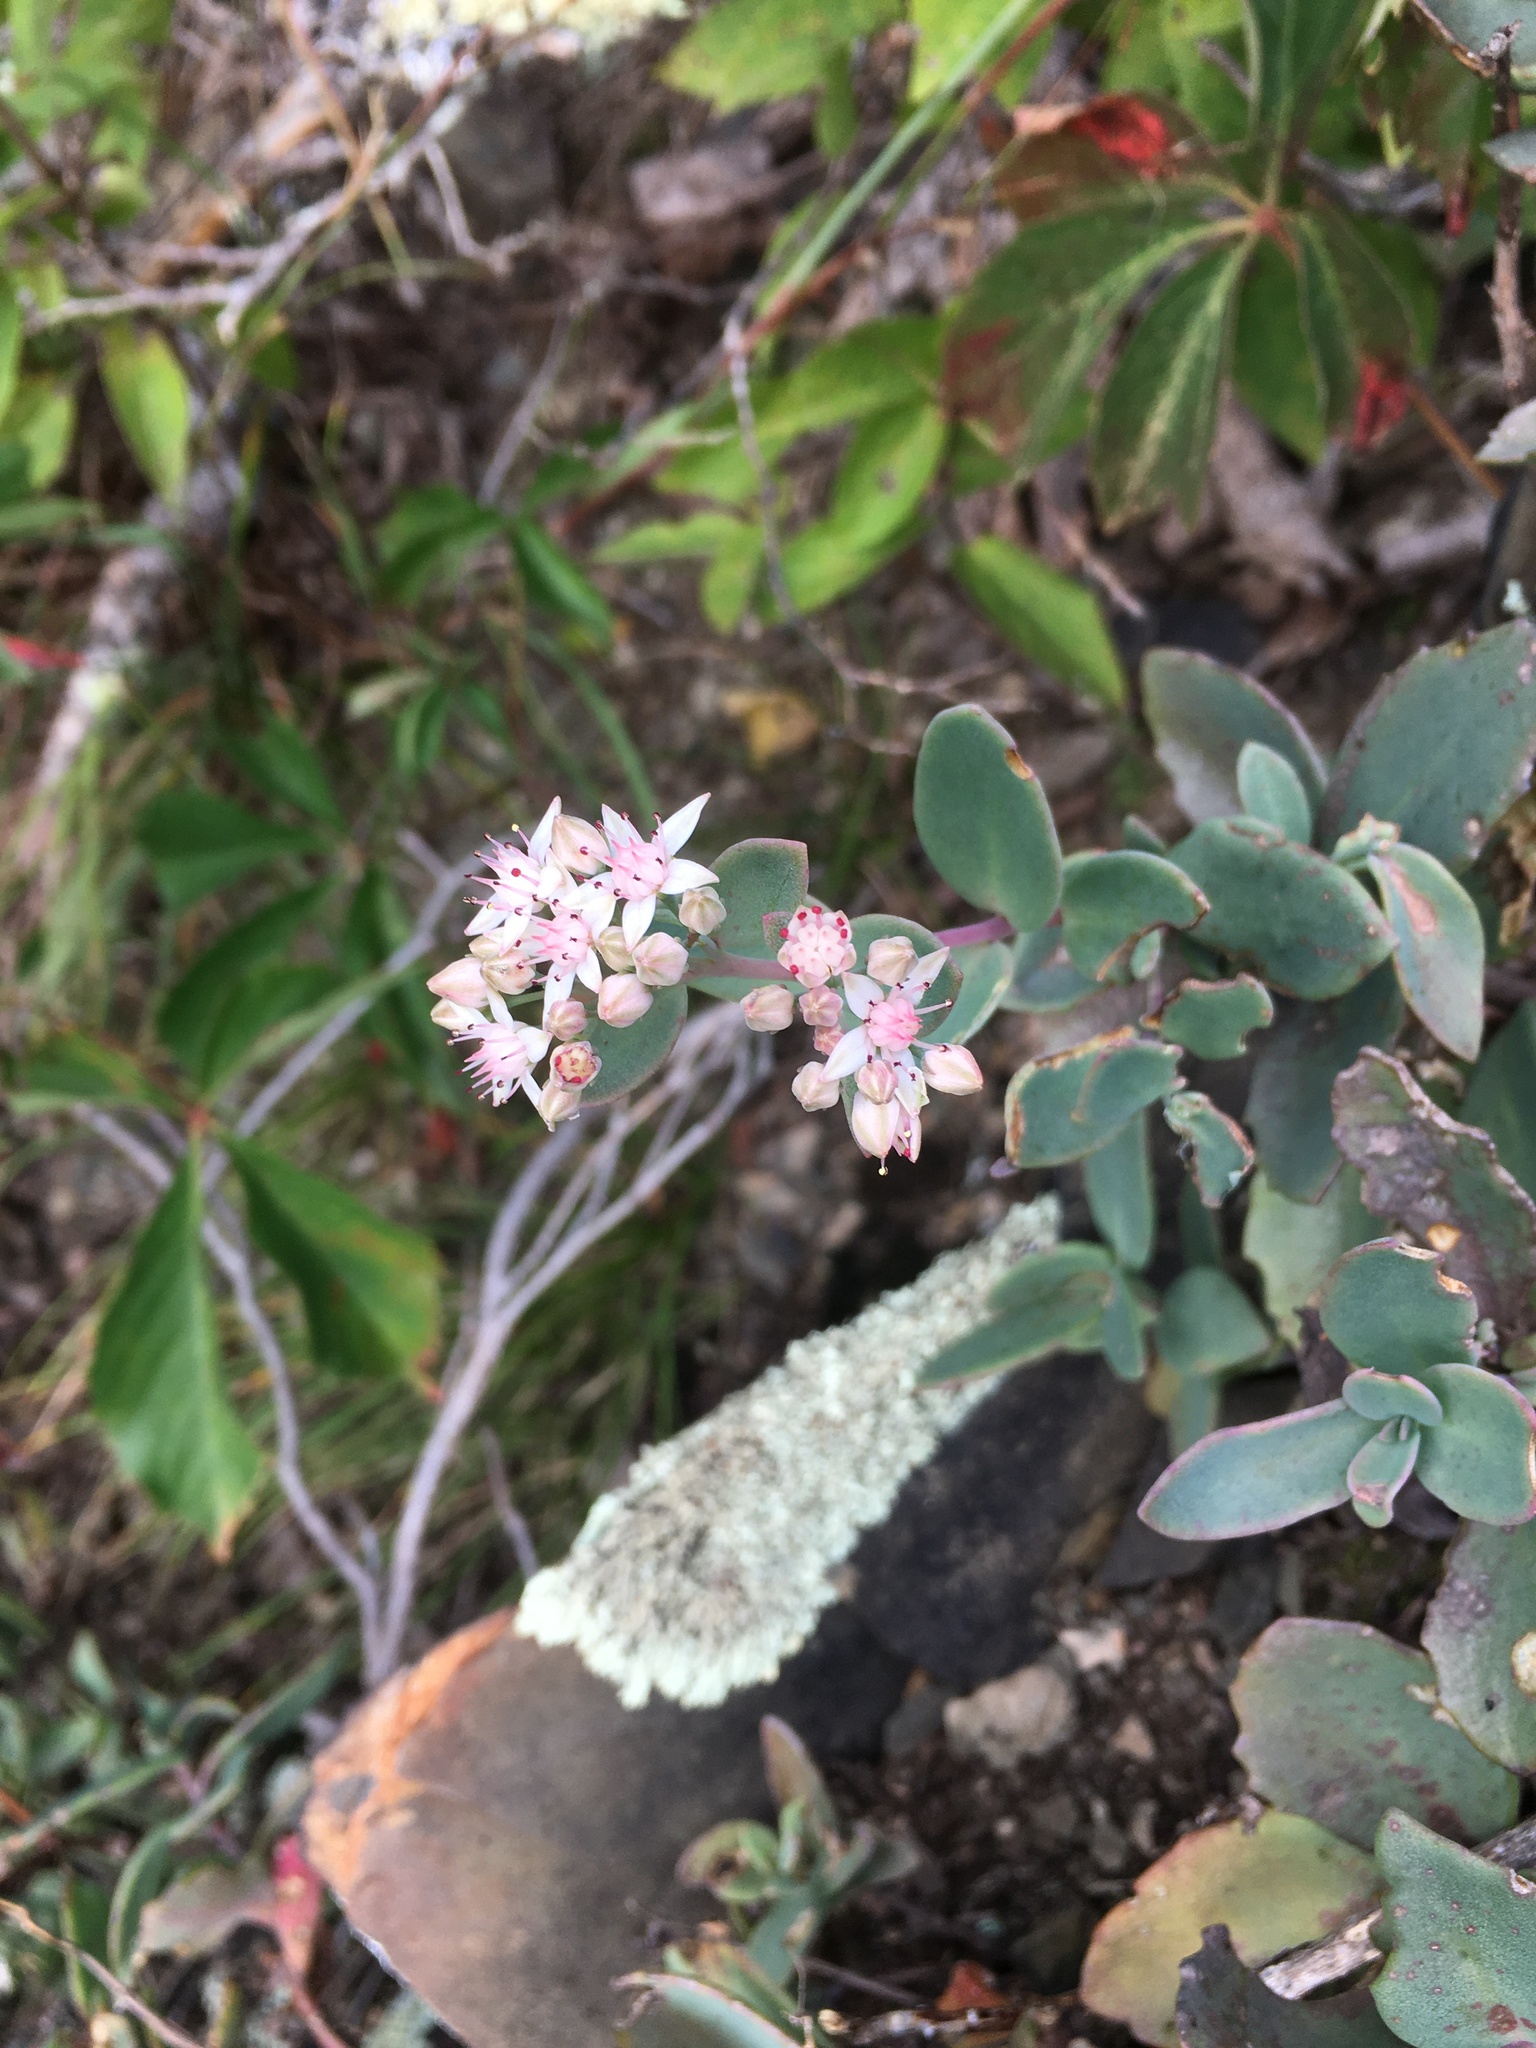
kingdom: Plantae
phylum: Tracheophyta
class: Magnoliopsida
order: Saxifragales
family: Crassulaceae
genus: Hylotelephium
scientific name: Hylotelephium telephioides
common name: Allegheny stonecrop
